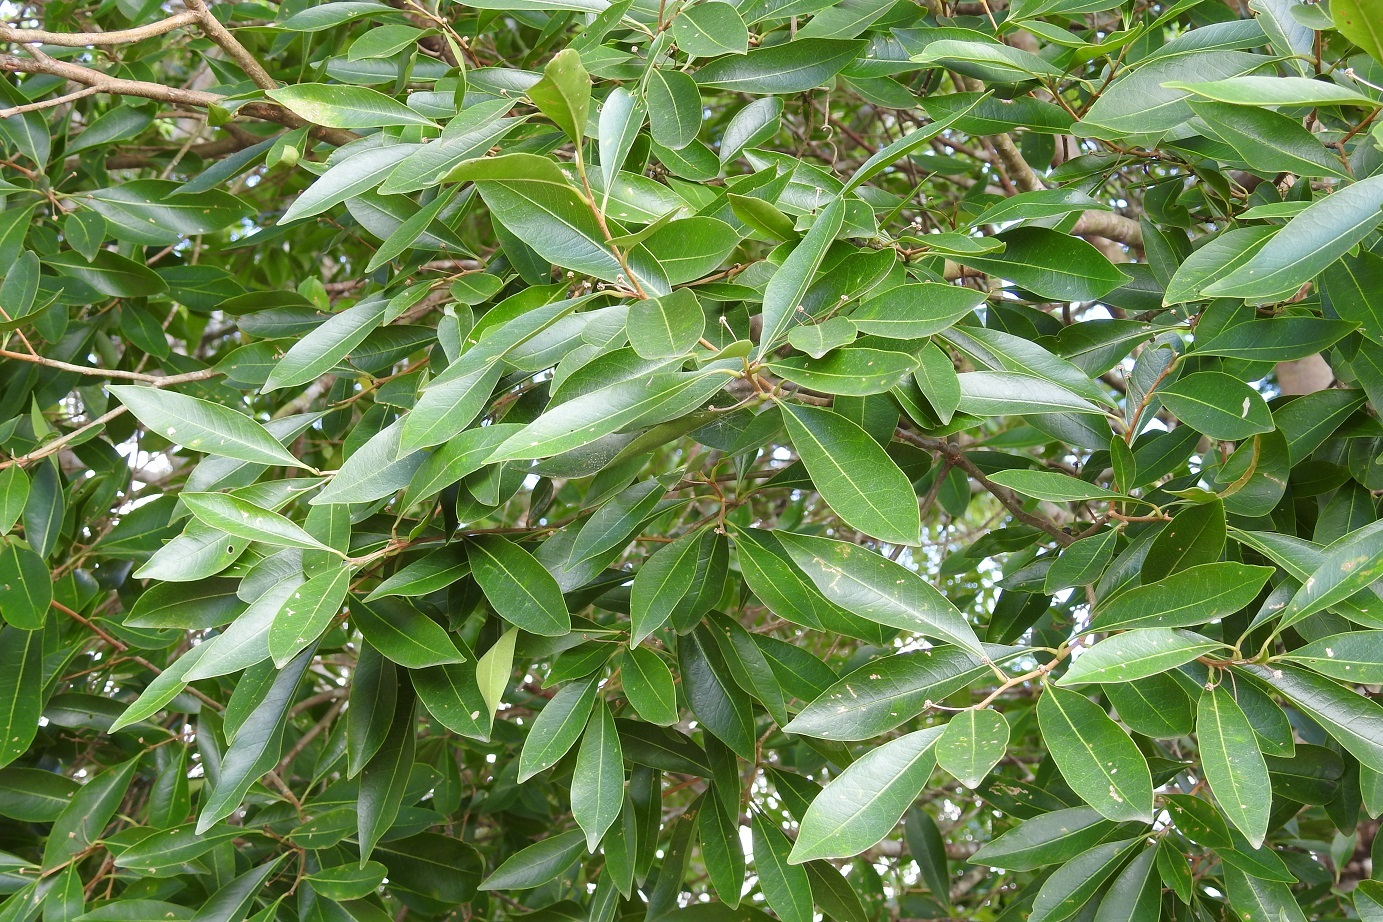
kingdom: Plantae
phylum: Tracheophyta
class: Magnoliopsida
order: Malvales
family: Thymelaeaceae
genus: Daphnopsis
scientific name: Daphnopsis americana
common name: Maho
